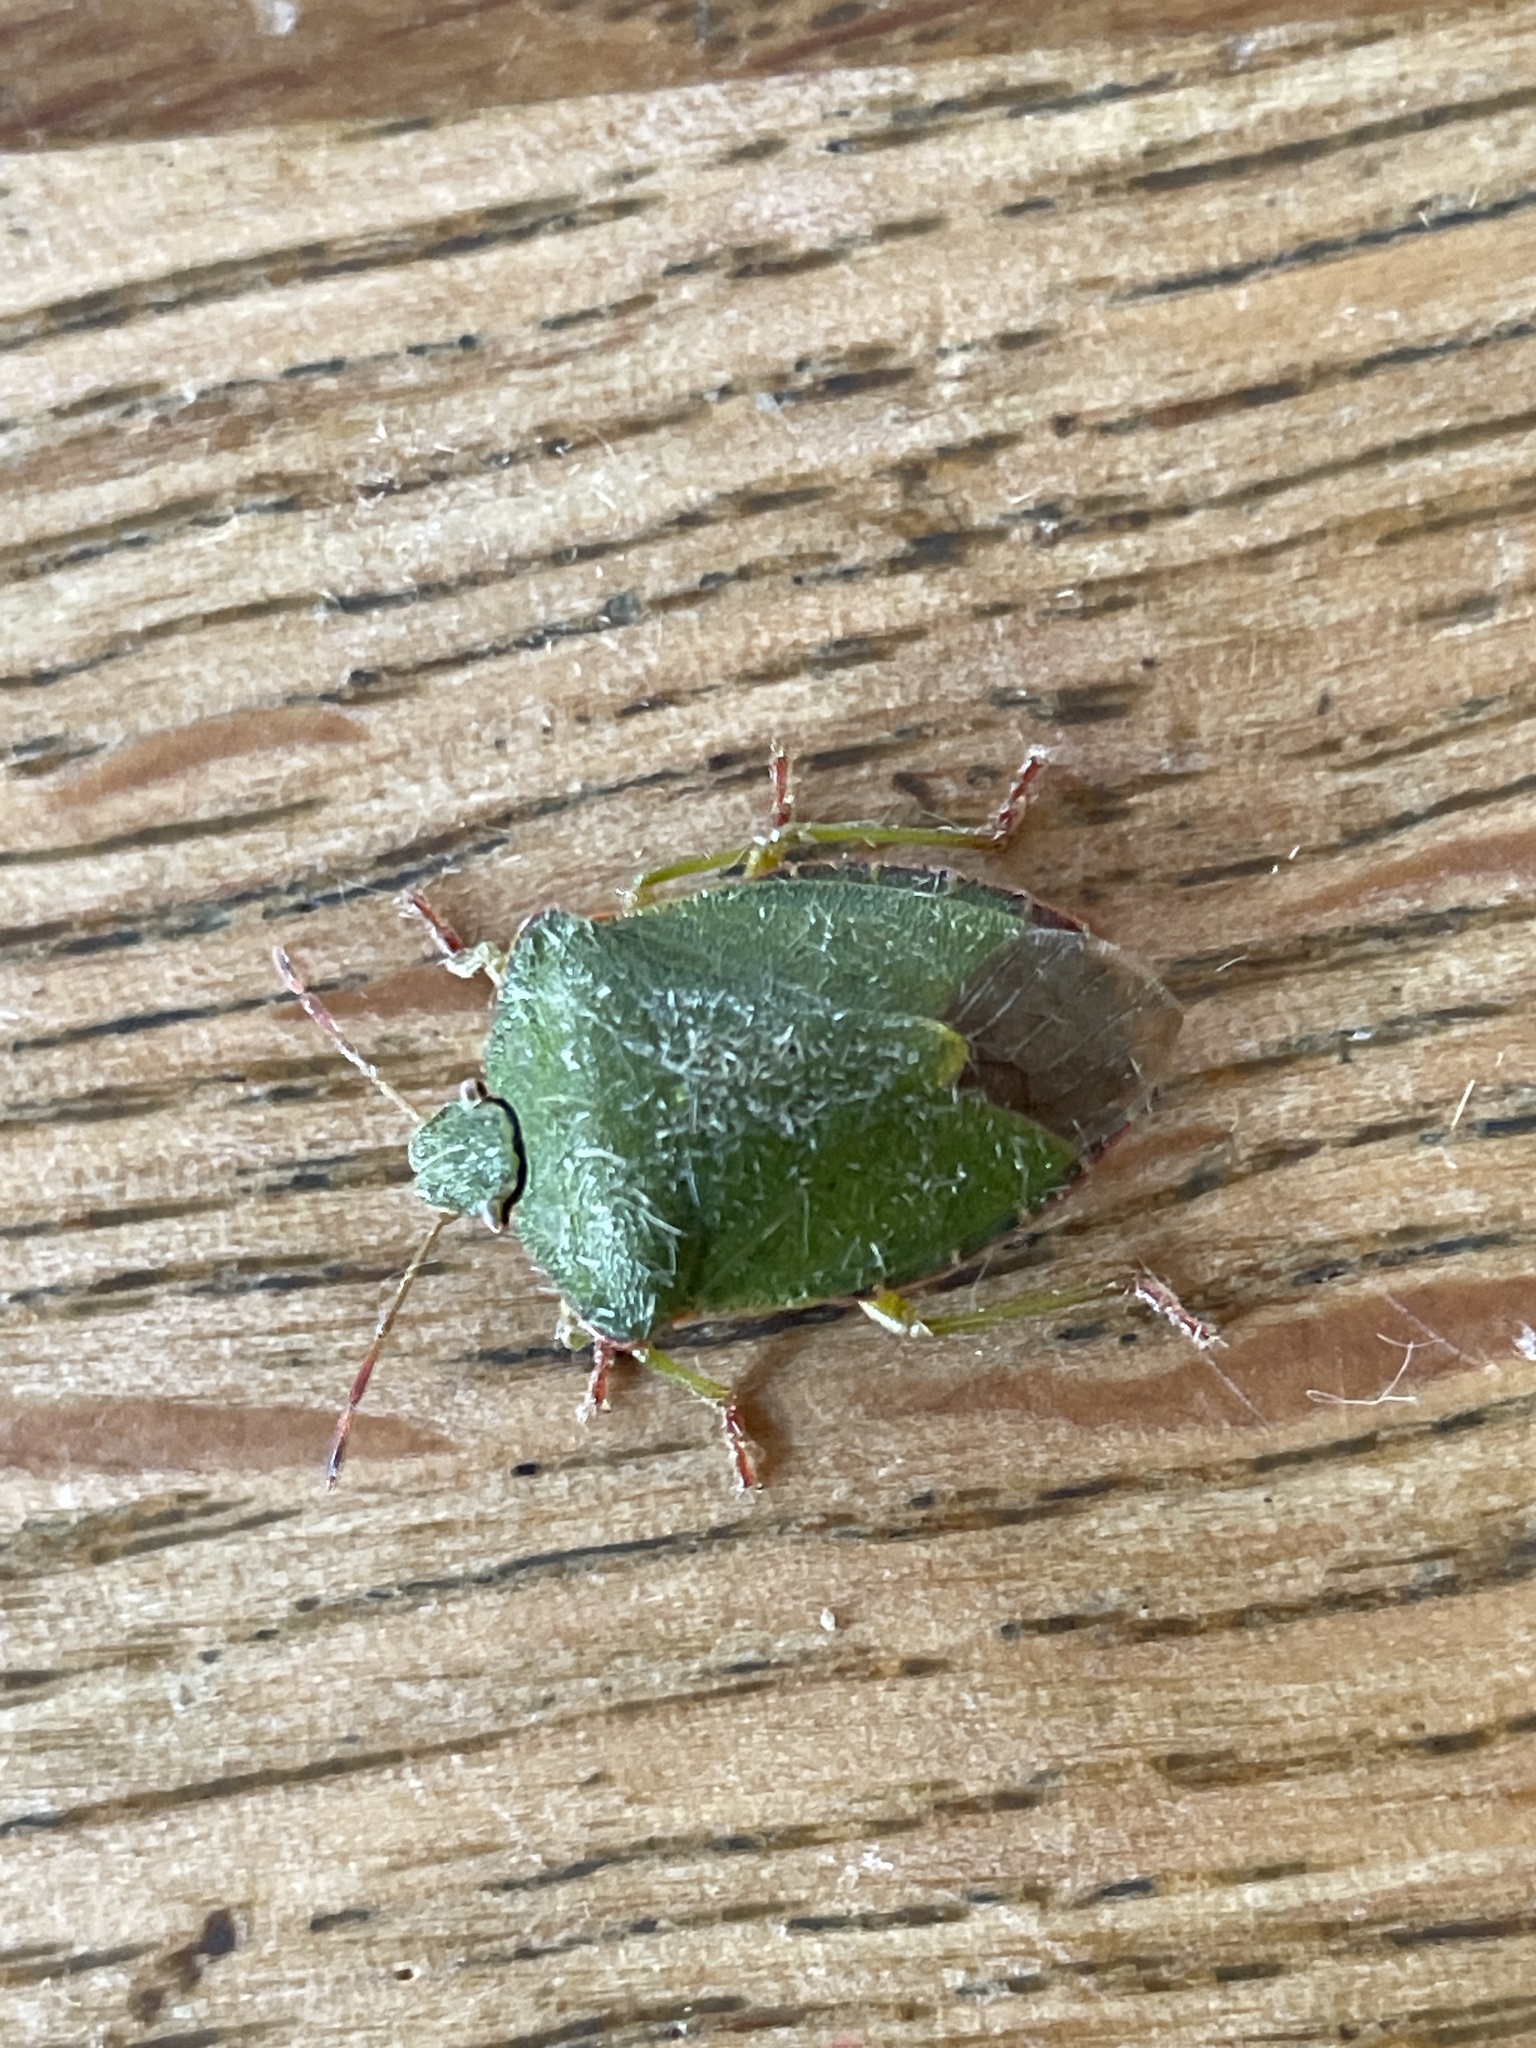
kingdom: Animalia
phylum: Arthropoda
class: Insecta
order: Hemiptera
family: Pentatomidae
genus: Palomena
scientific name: Palomena prasina
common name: Green shieldbug
